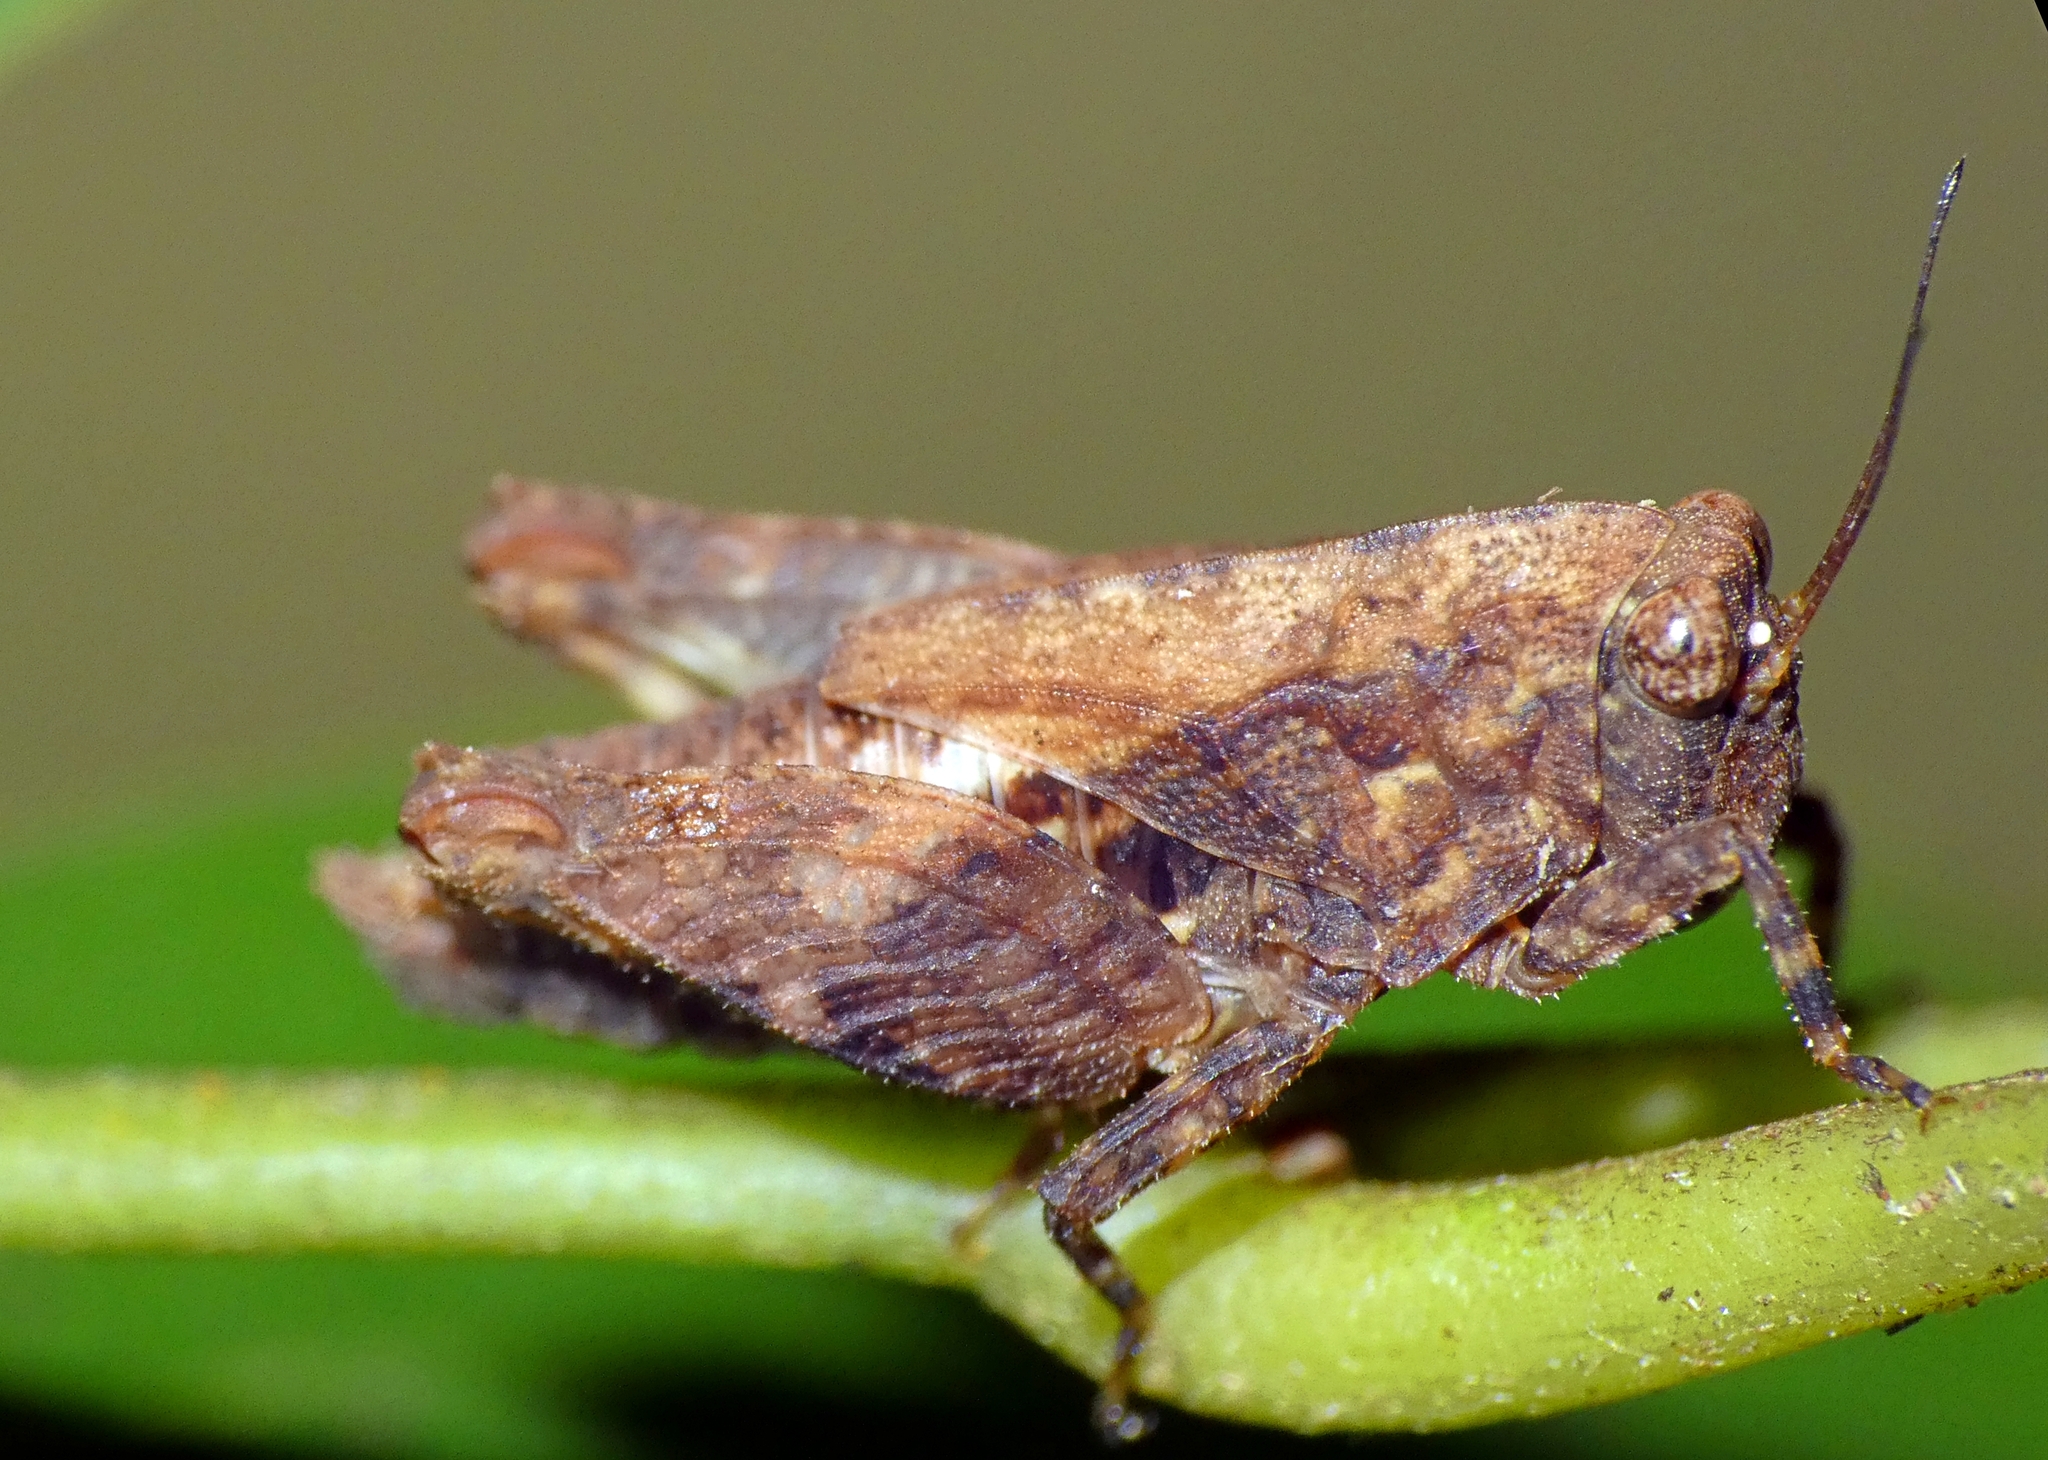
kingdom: Animalia
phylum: Arthropoda
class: Insecta
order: Orthoptera
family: Tetrigidae
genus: Anaselina
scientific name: Anaselina minor
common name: Tiny helmed groundhopper
